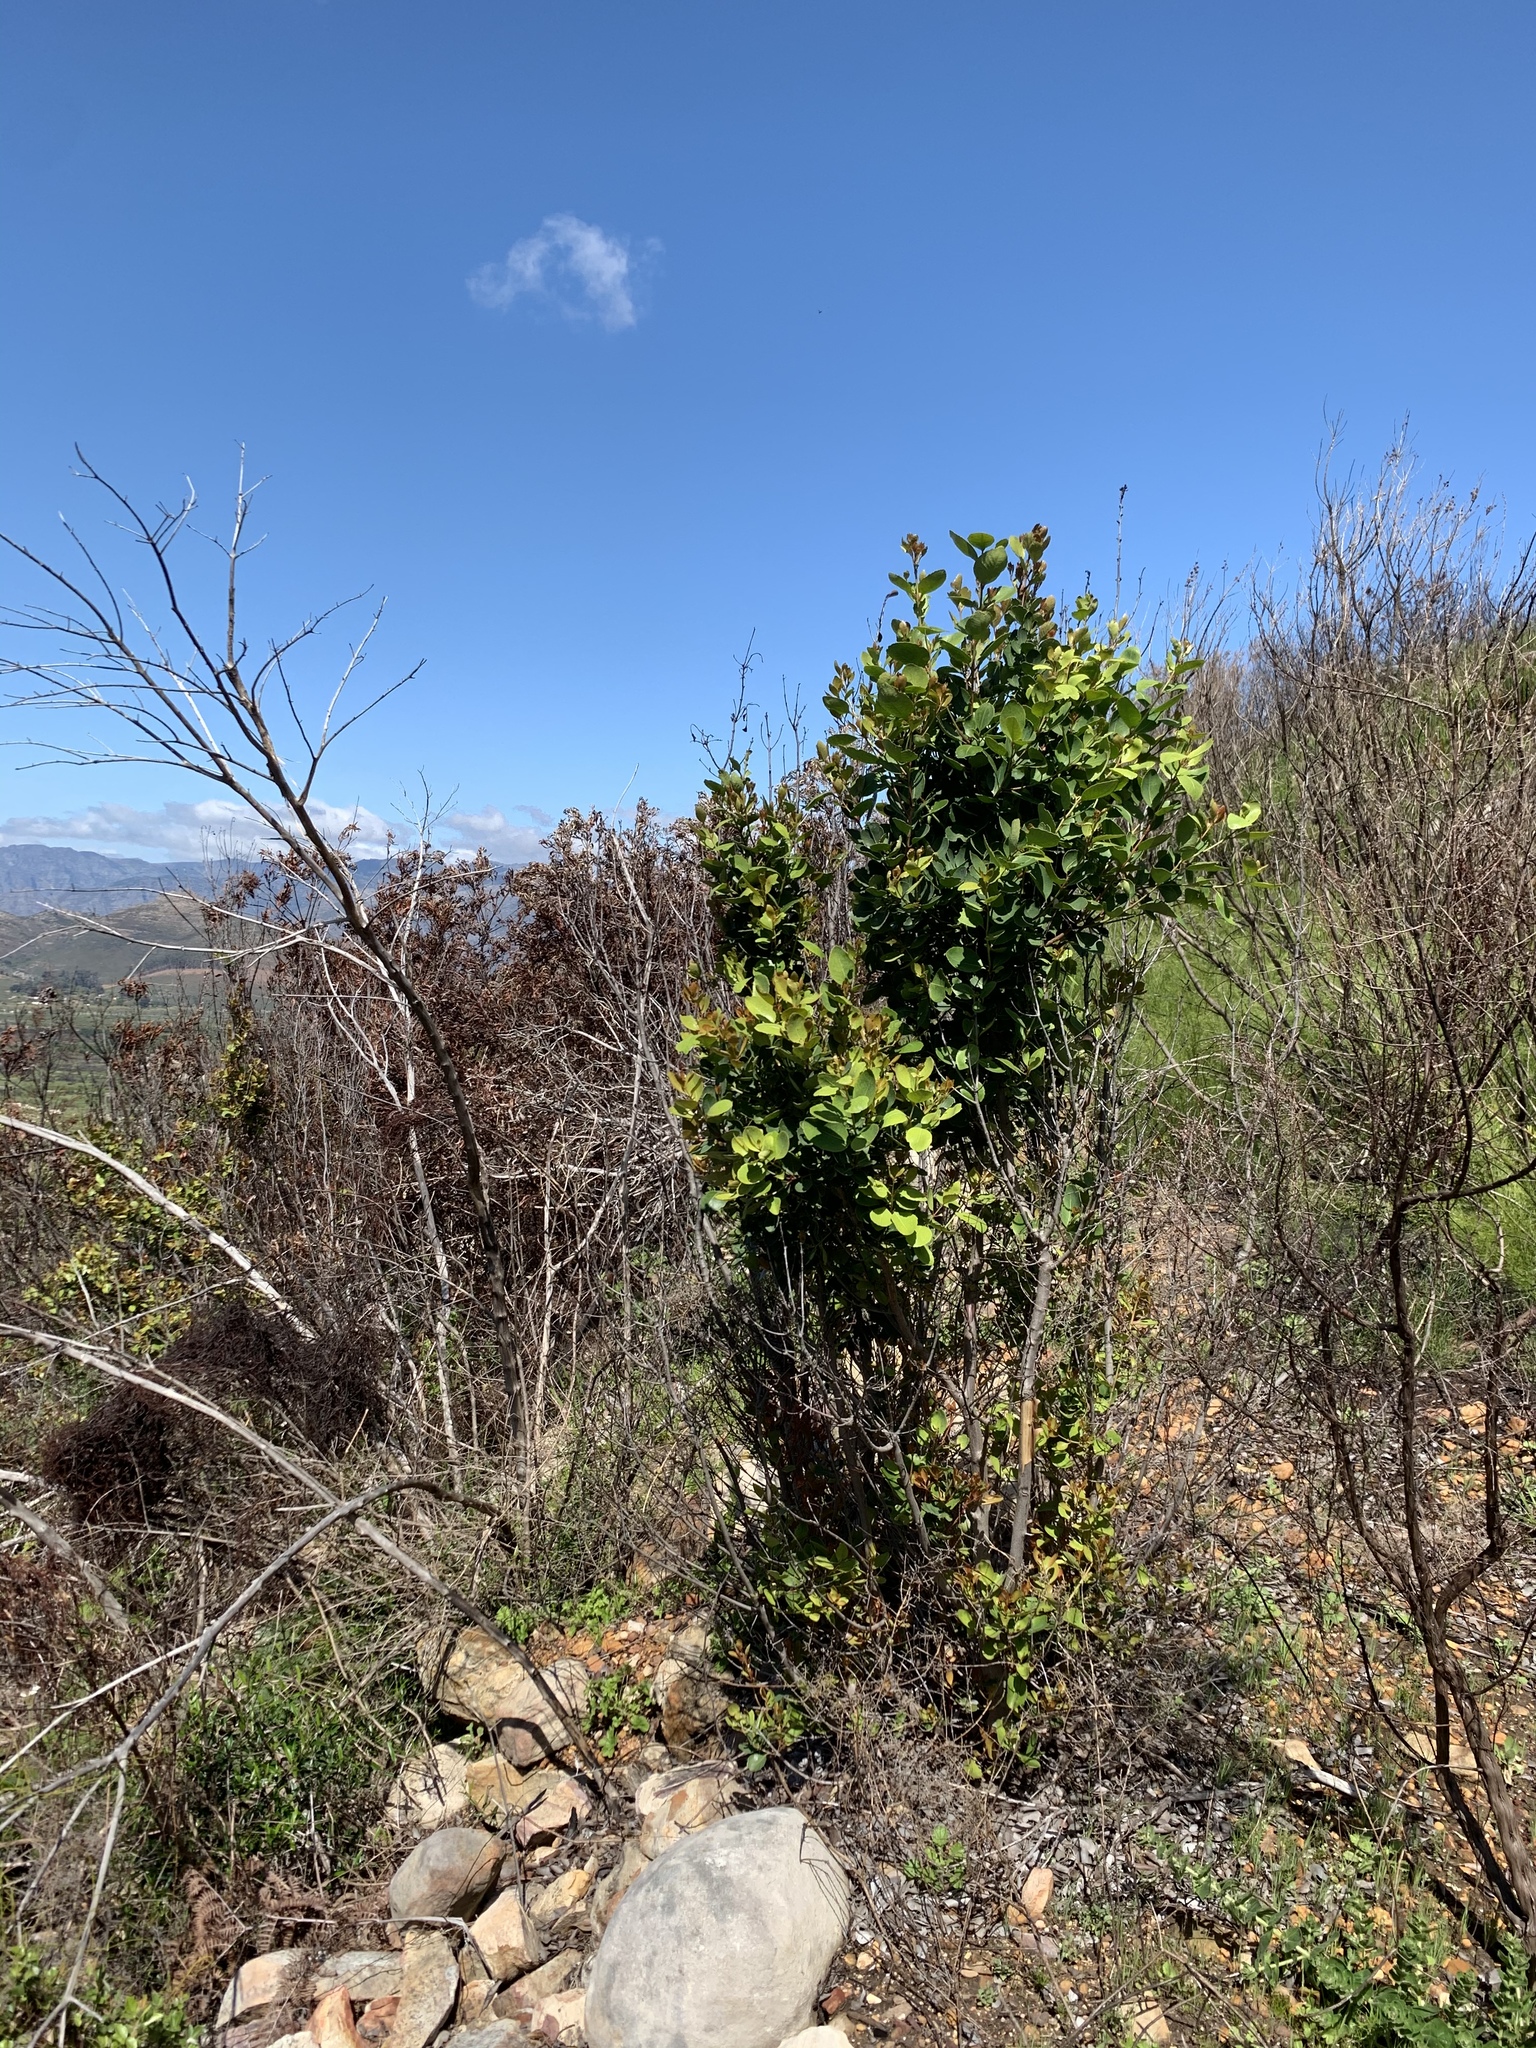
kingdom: Plantae
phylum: Tracheophyta
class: Magnoliopsida
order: Celastrales
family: Celastraceae
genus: Elaeodendron
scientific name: Elaeodendron schinoides
